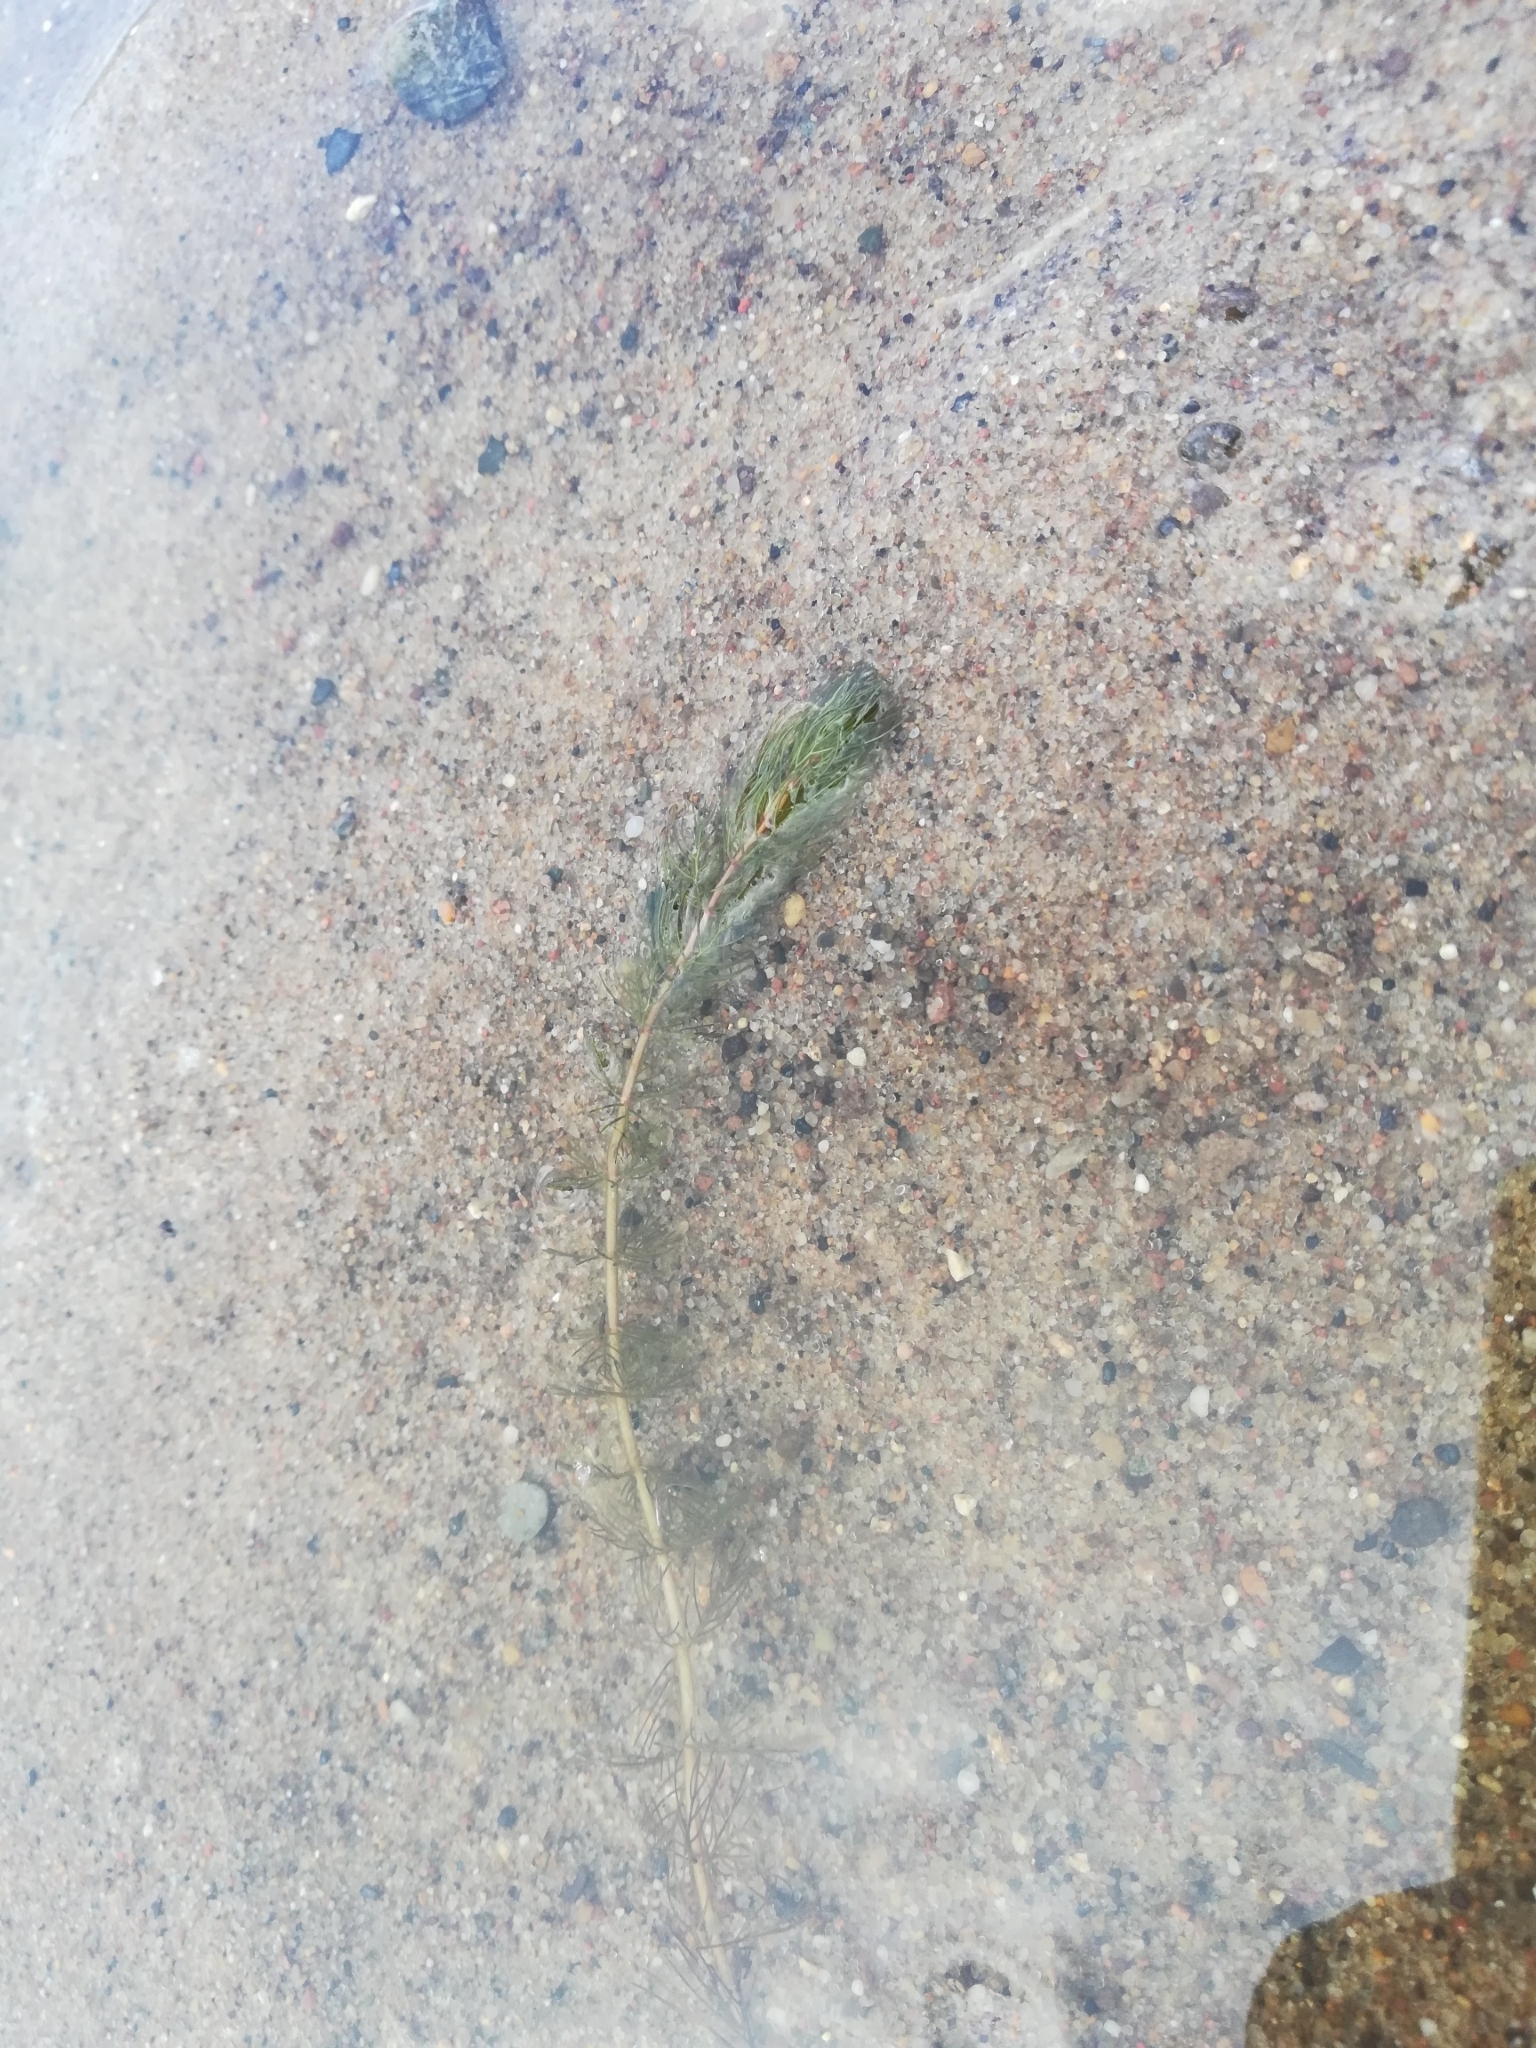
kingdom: Plantae
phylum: Tracheophyta
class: Magnoliopsida
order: Saxifragales
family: Haloragaceae
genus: Myriophyllum
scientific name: Myriophyllum sibiricum
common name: Siberian water-milfoil
